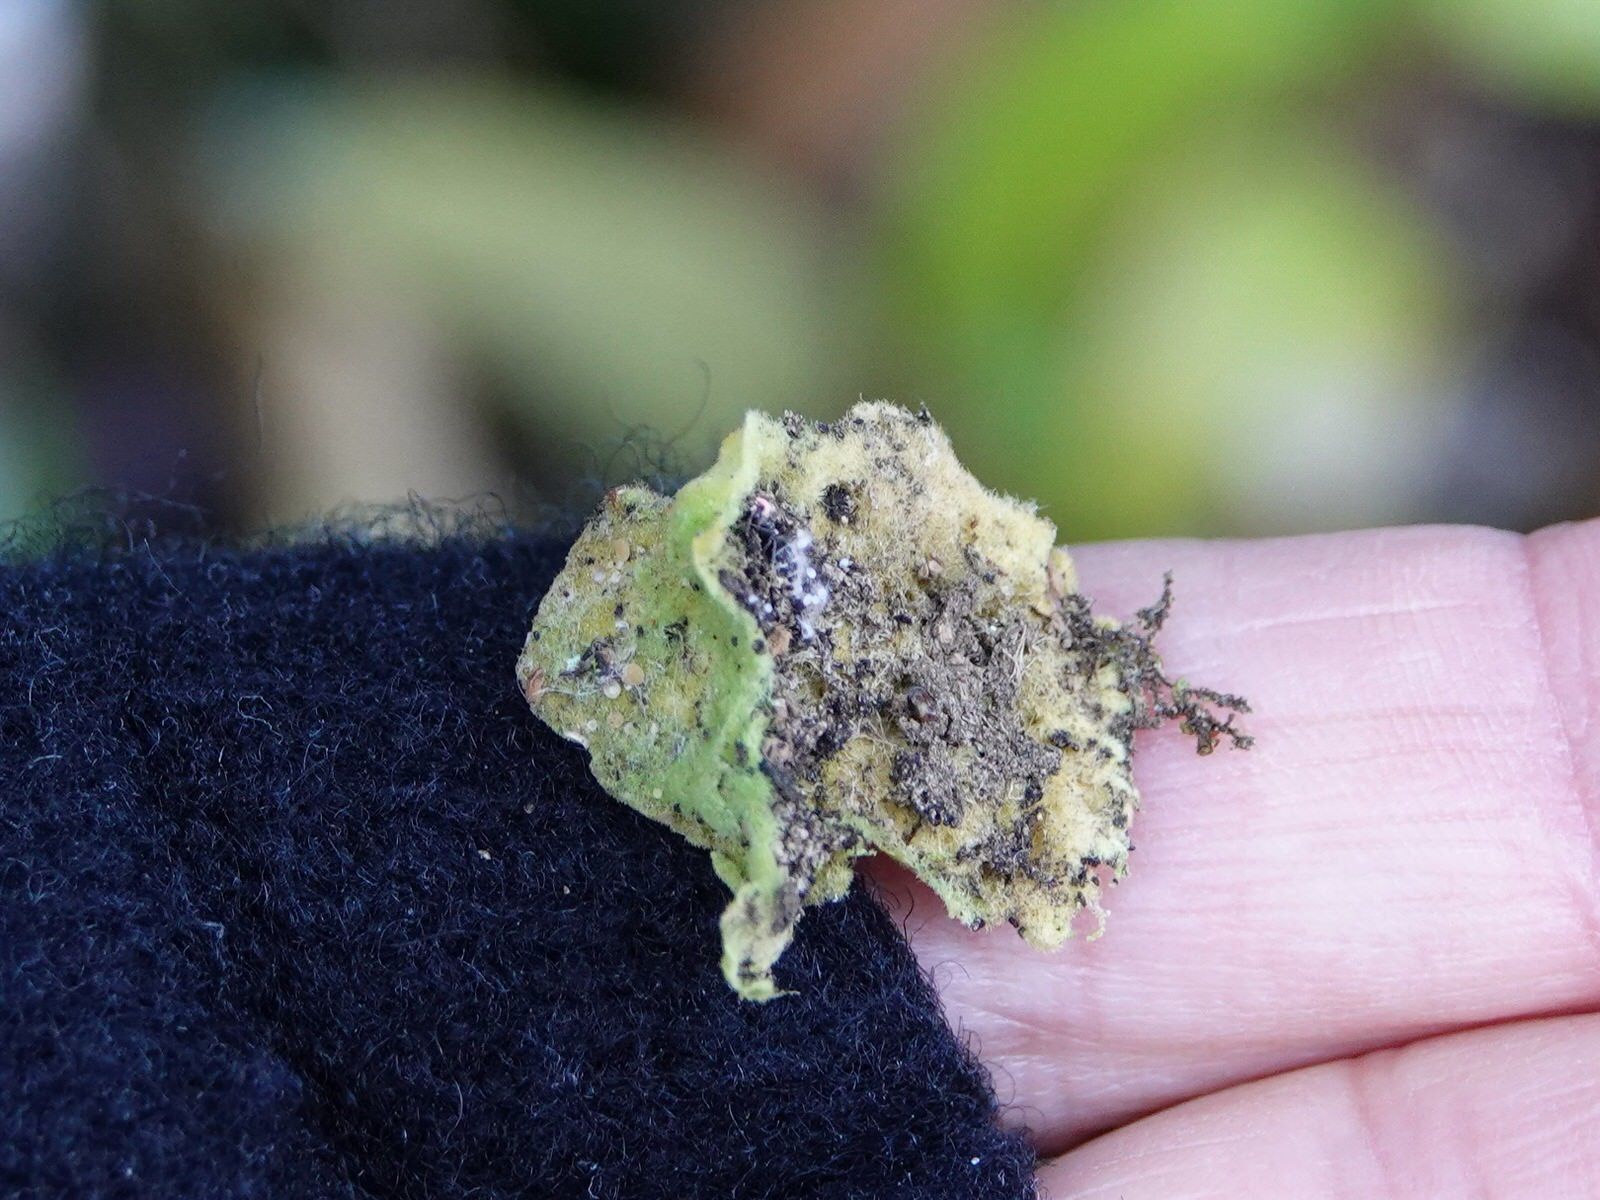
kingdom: Fungi
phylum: Ascomycota
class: Lecanoromycetes
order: Ostropales
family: Coenogoniaceae
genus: Coenogonium
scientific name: Coenogonium implexum
